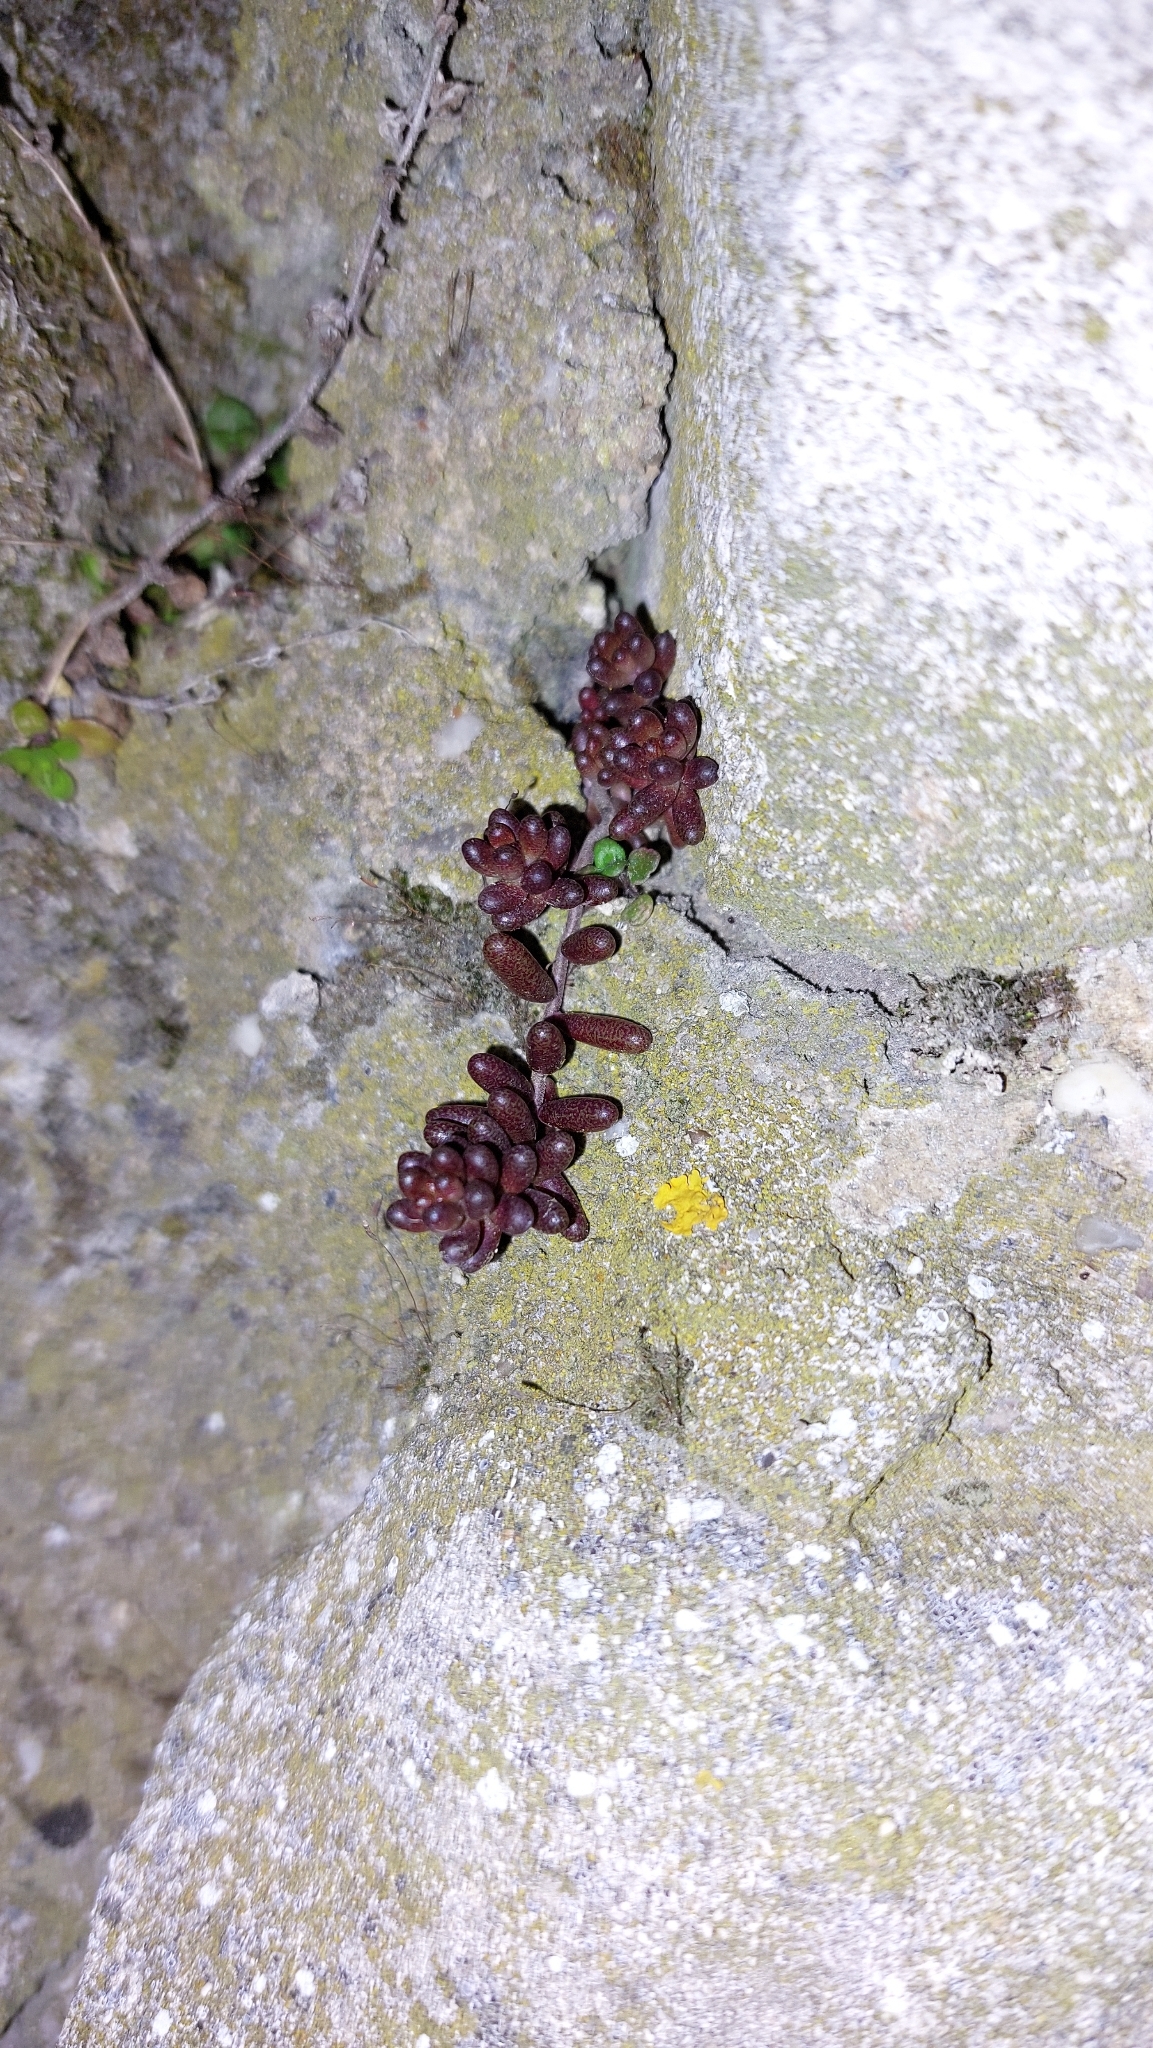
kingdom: Plantae
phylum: Tracheophyta
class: Magnoliopsida
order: Saxifragales
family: Crassulaceae
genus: Sedum
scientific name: Sedum album
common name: White stonecrop
